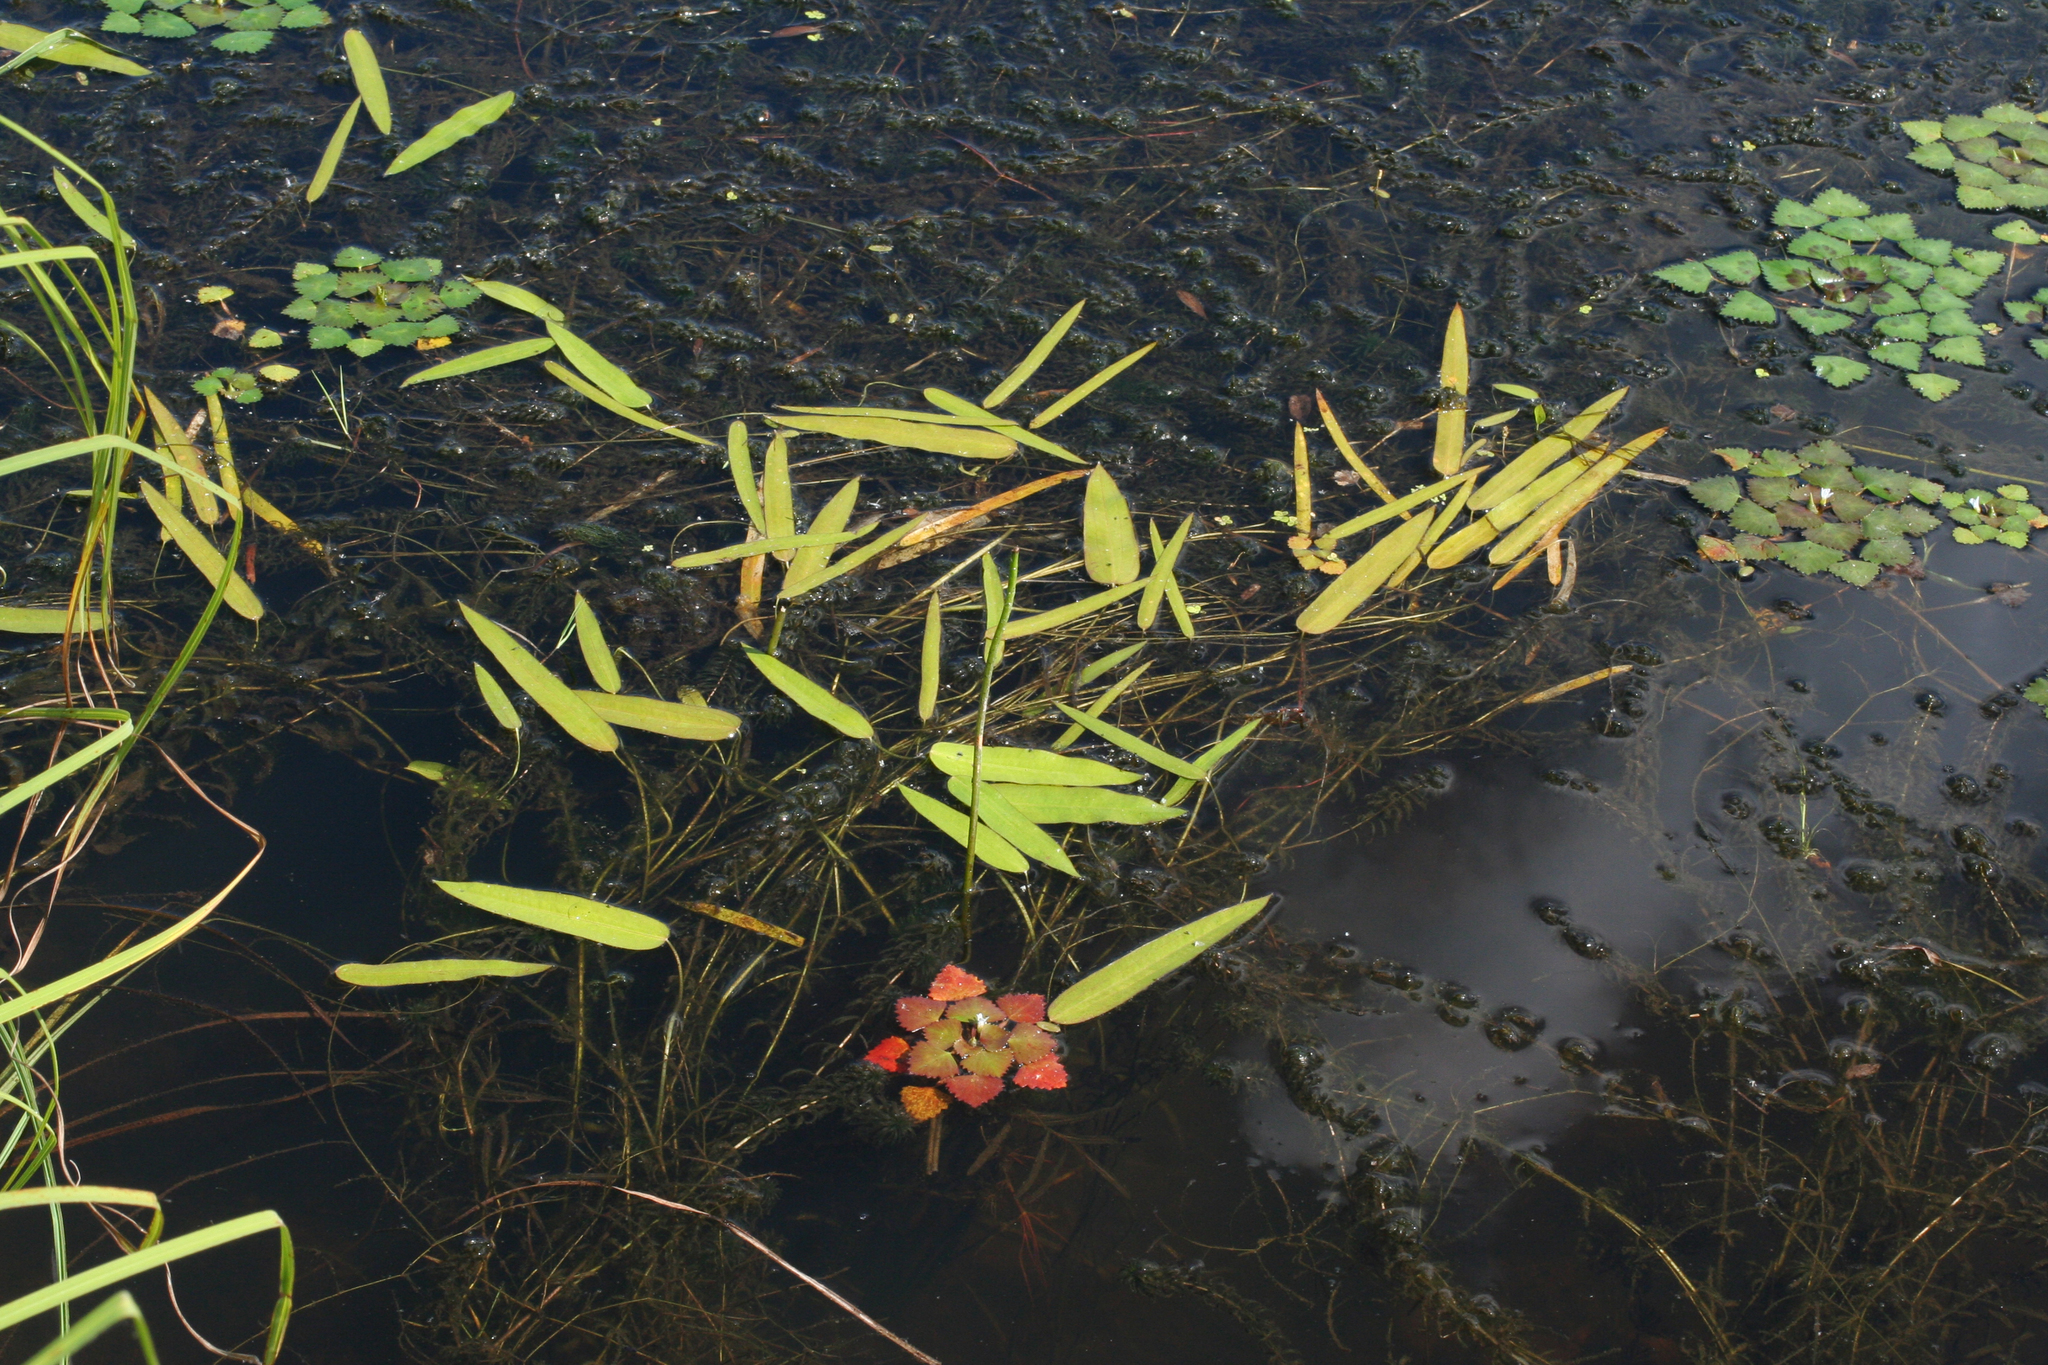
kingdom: Plantae
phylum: Tracheophyta
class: Liliopsida
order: Alismatales
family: Alismataceae
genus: Sagittaria
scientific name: Sagittaria natans
